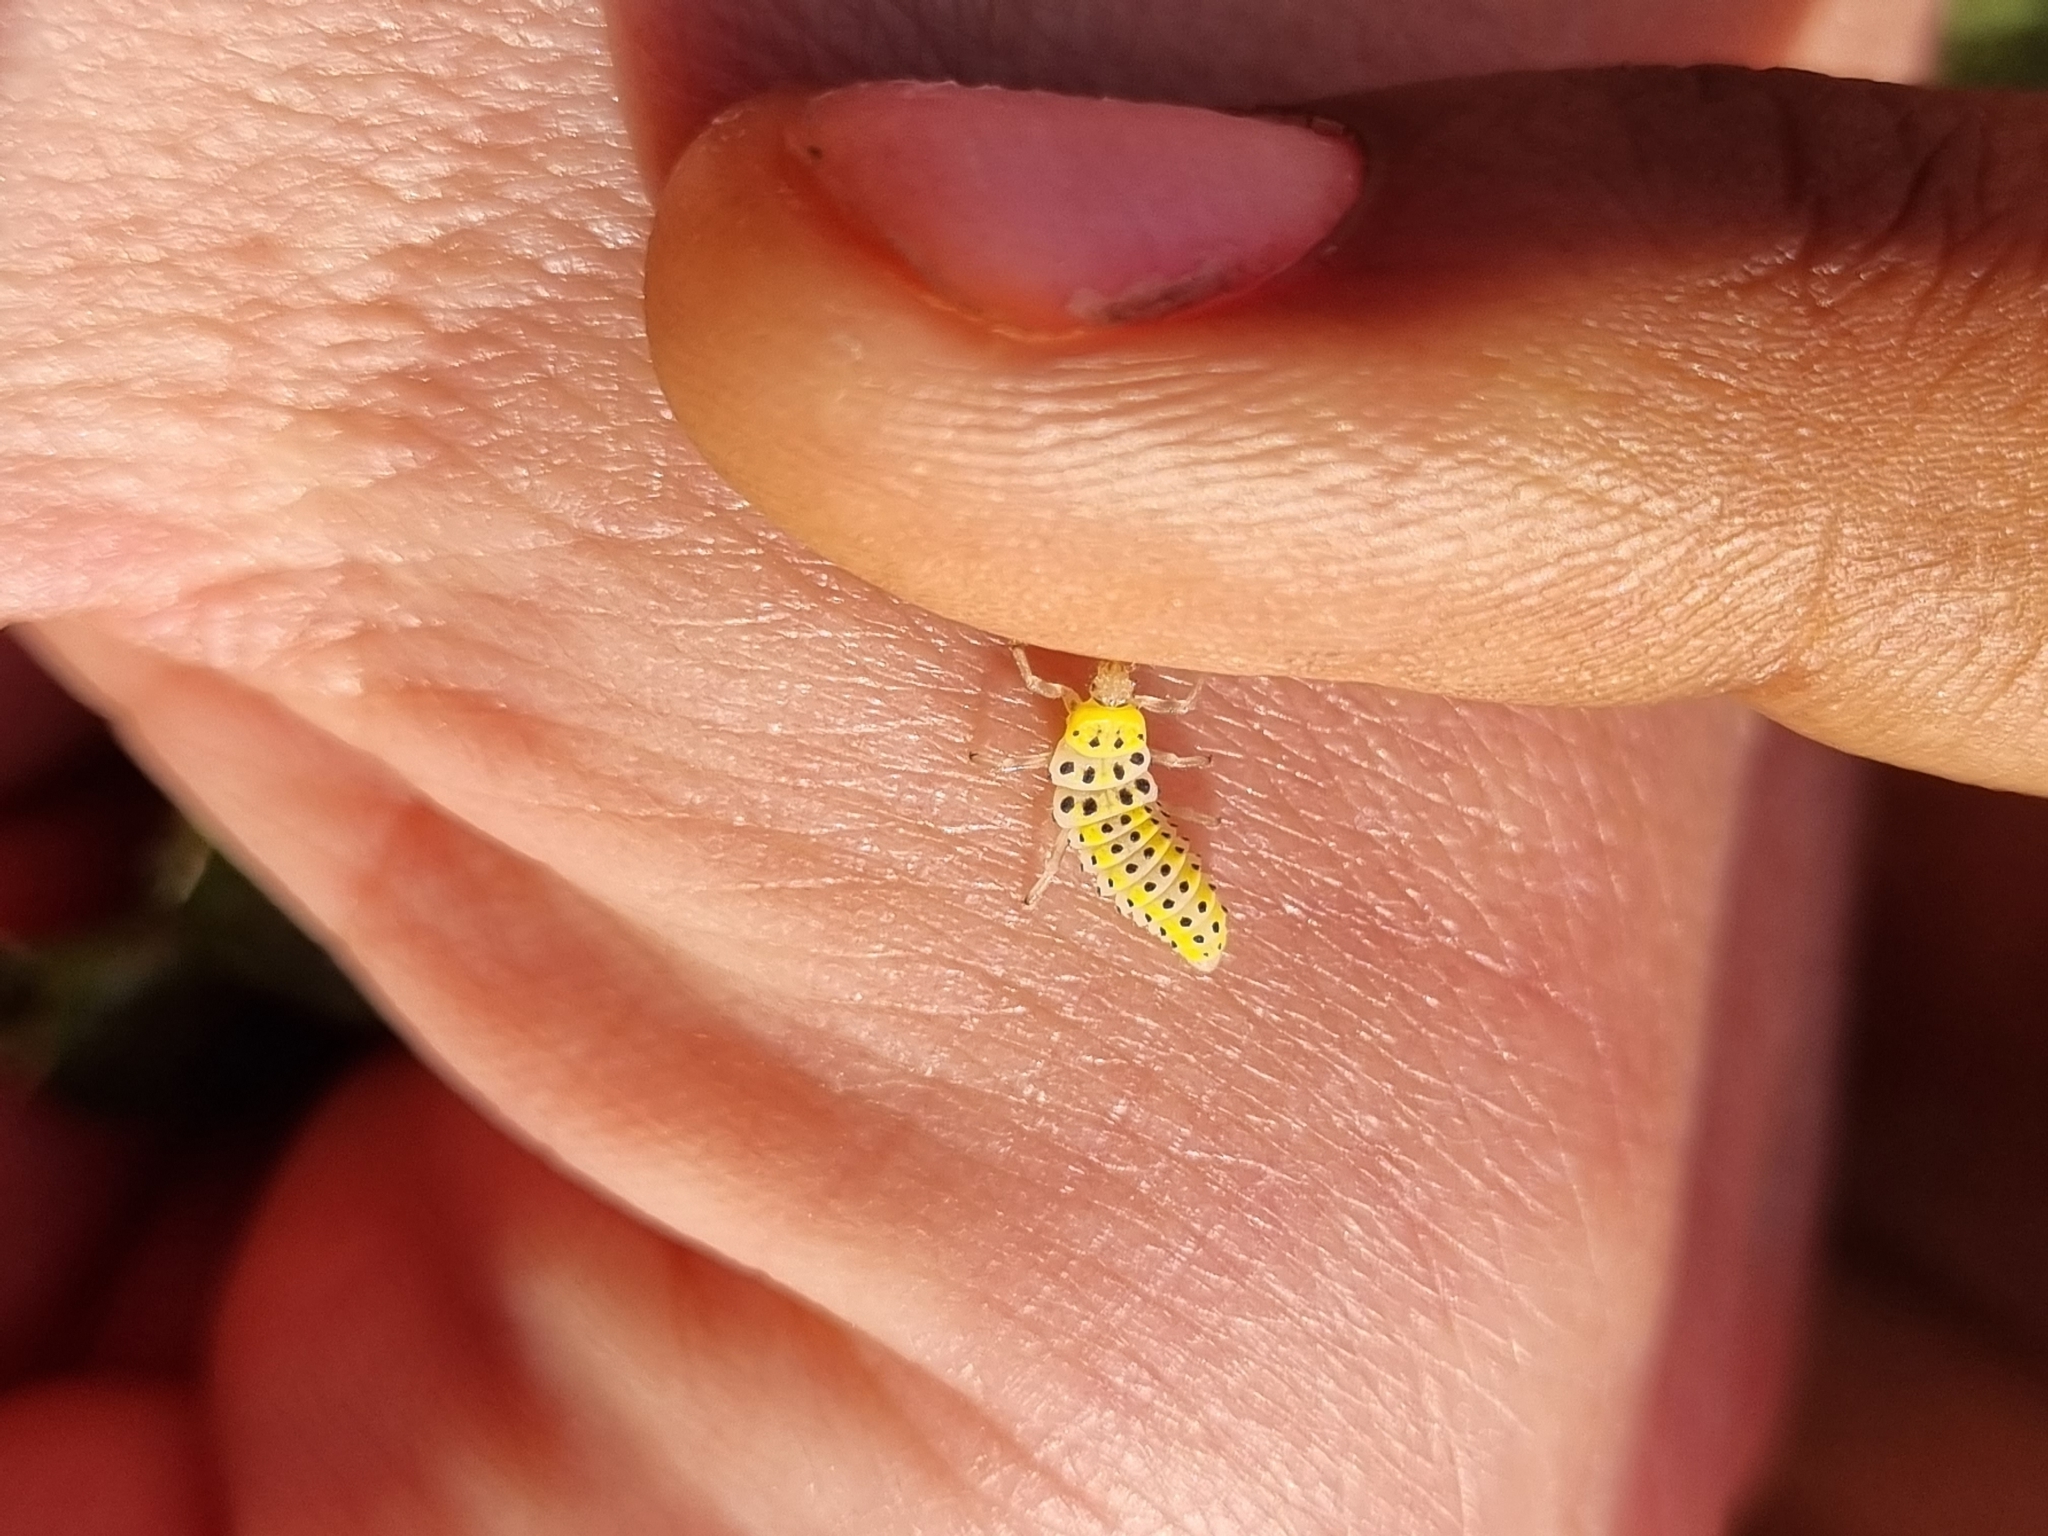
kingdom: Animalia
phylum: Arthropoda
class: Insecta
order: Coleoptera
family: Coccinellidae
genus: Halyzia
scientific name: Halyzia sedecimguttata
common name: Orange ladybird
